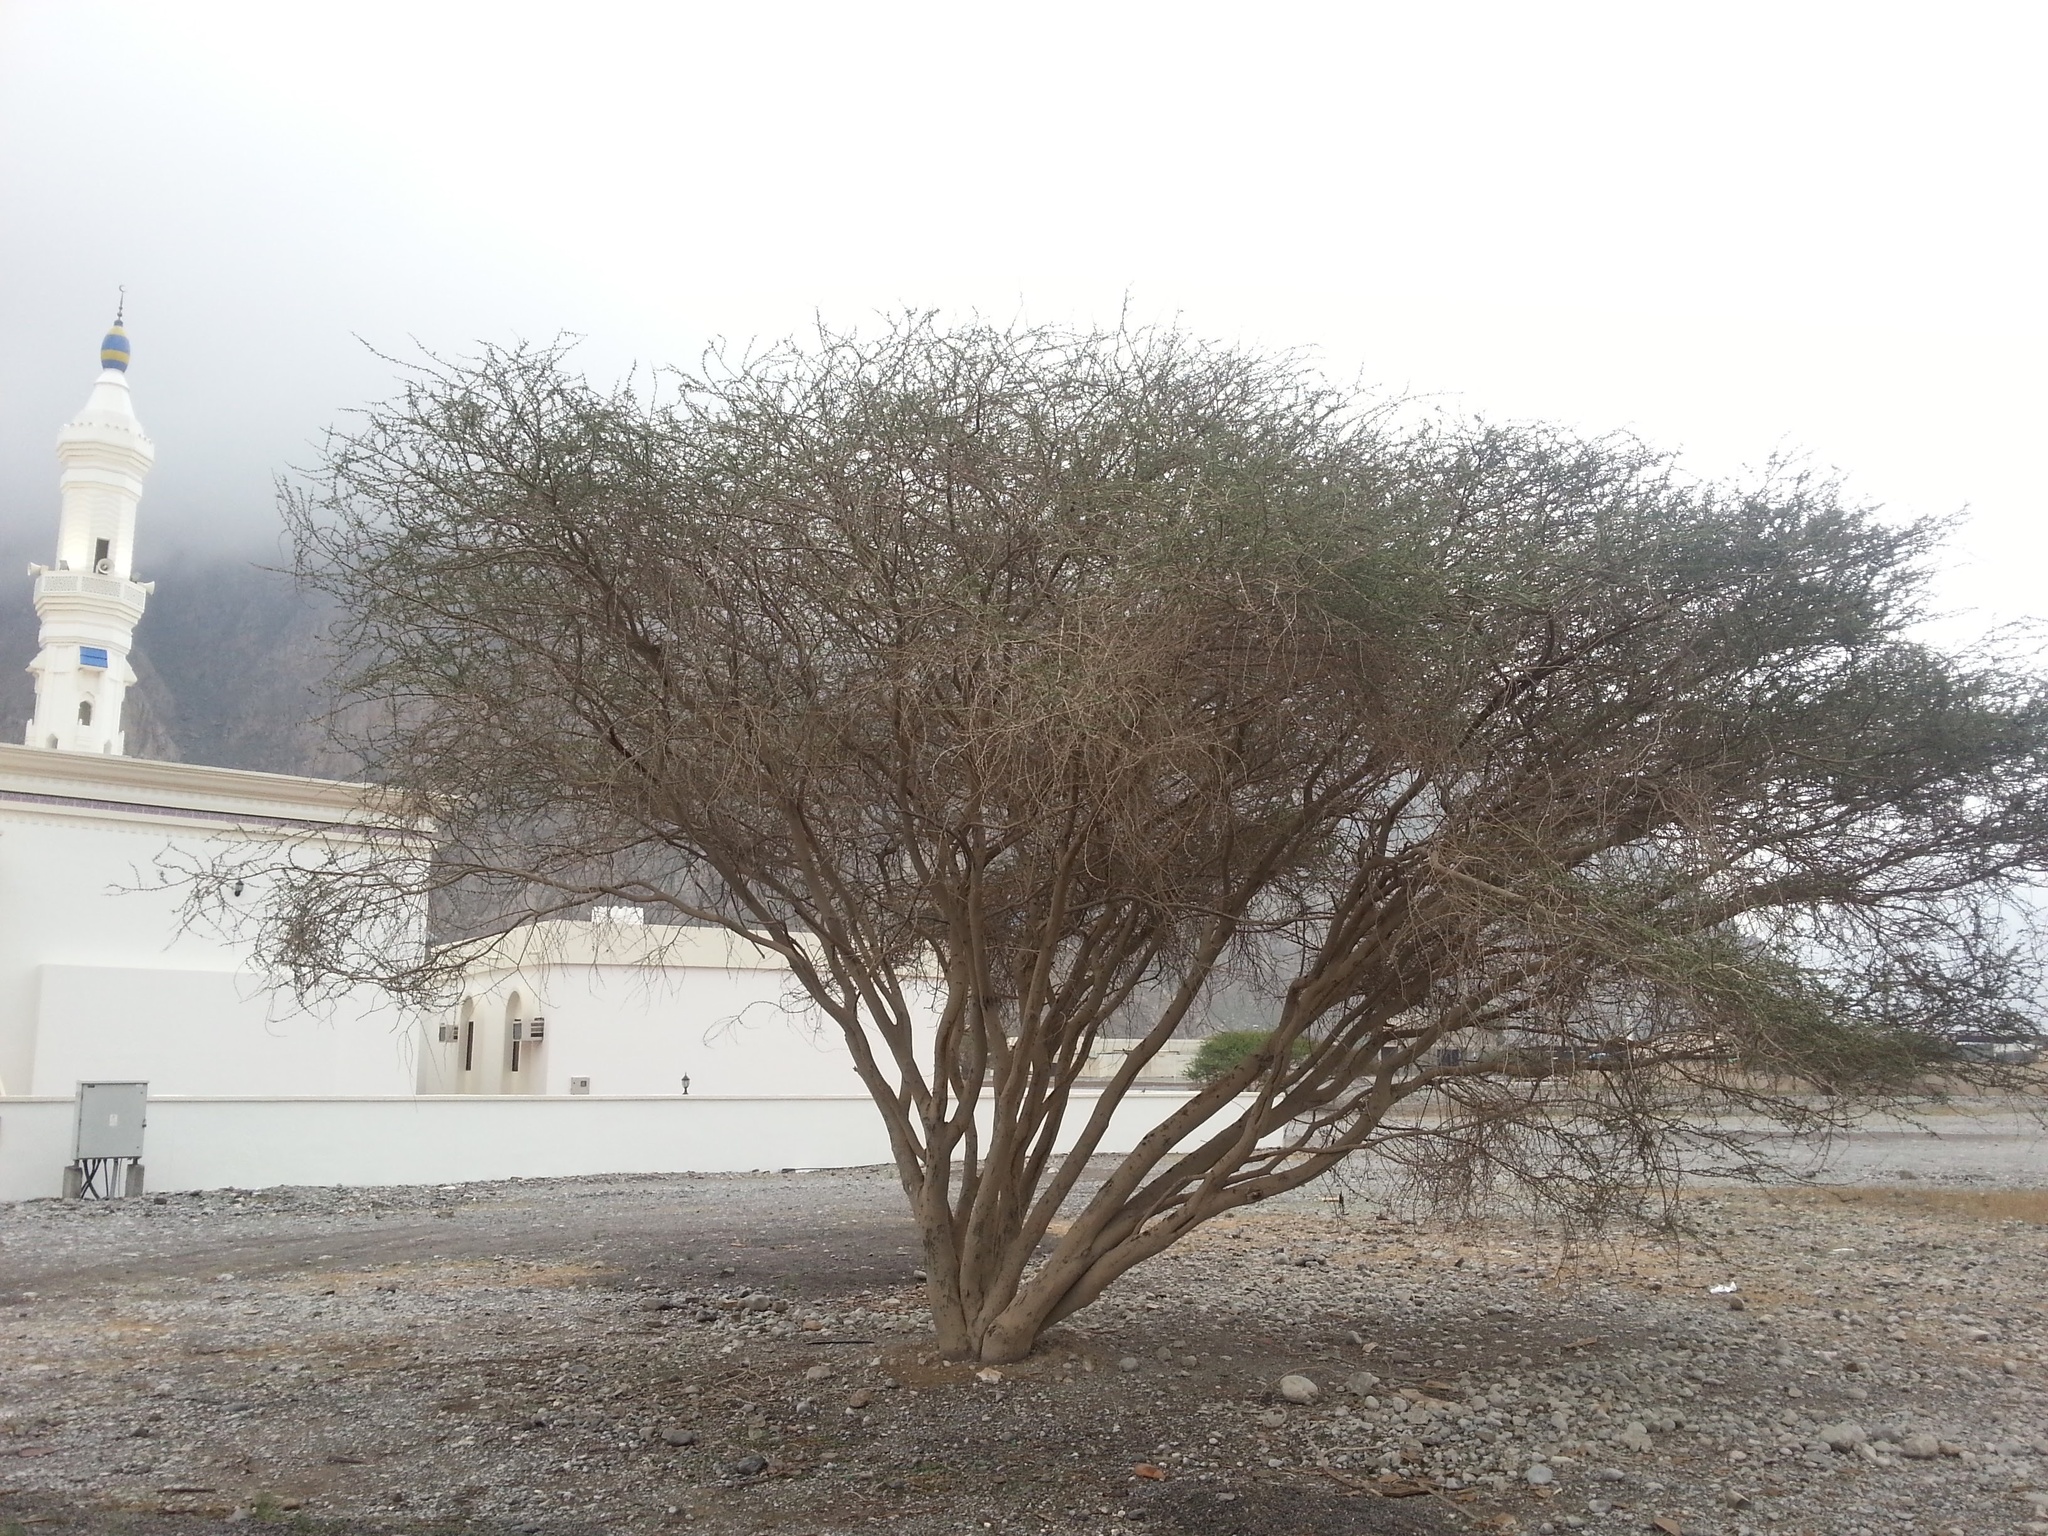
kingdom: Plantae
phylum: Tracheophyta
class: Magnoliopsida
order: Fabales
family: Fabaceae
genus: Vachellia
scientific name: Vachellia tortilis
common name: Umbrella thorn acacia
